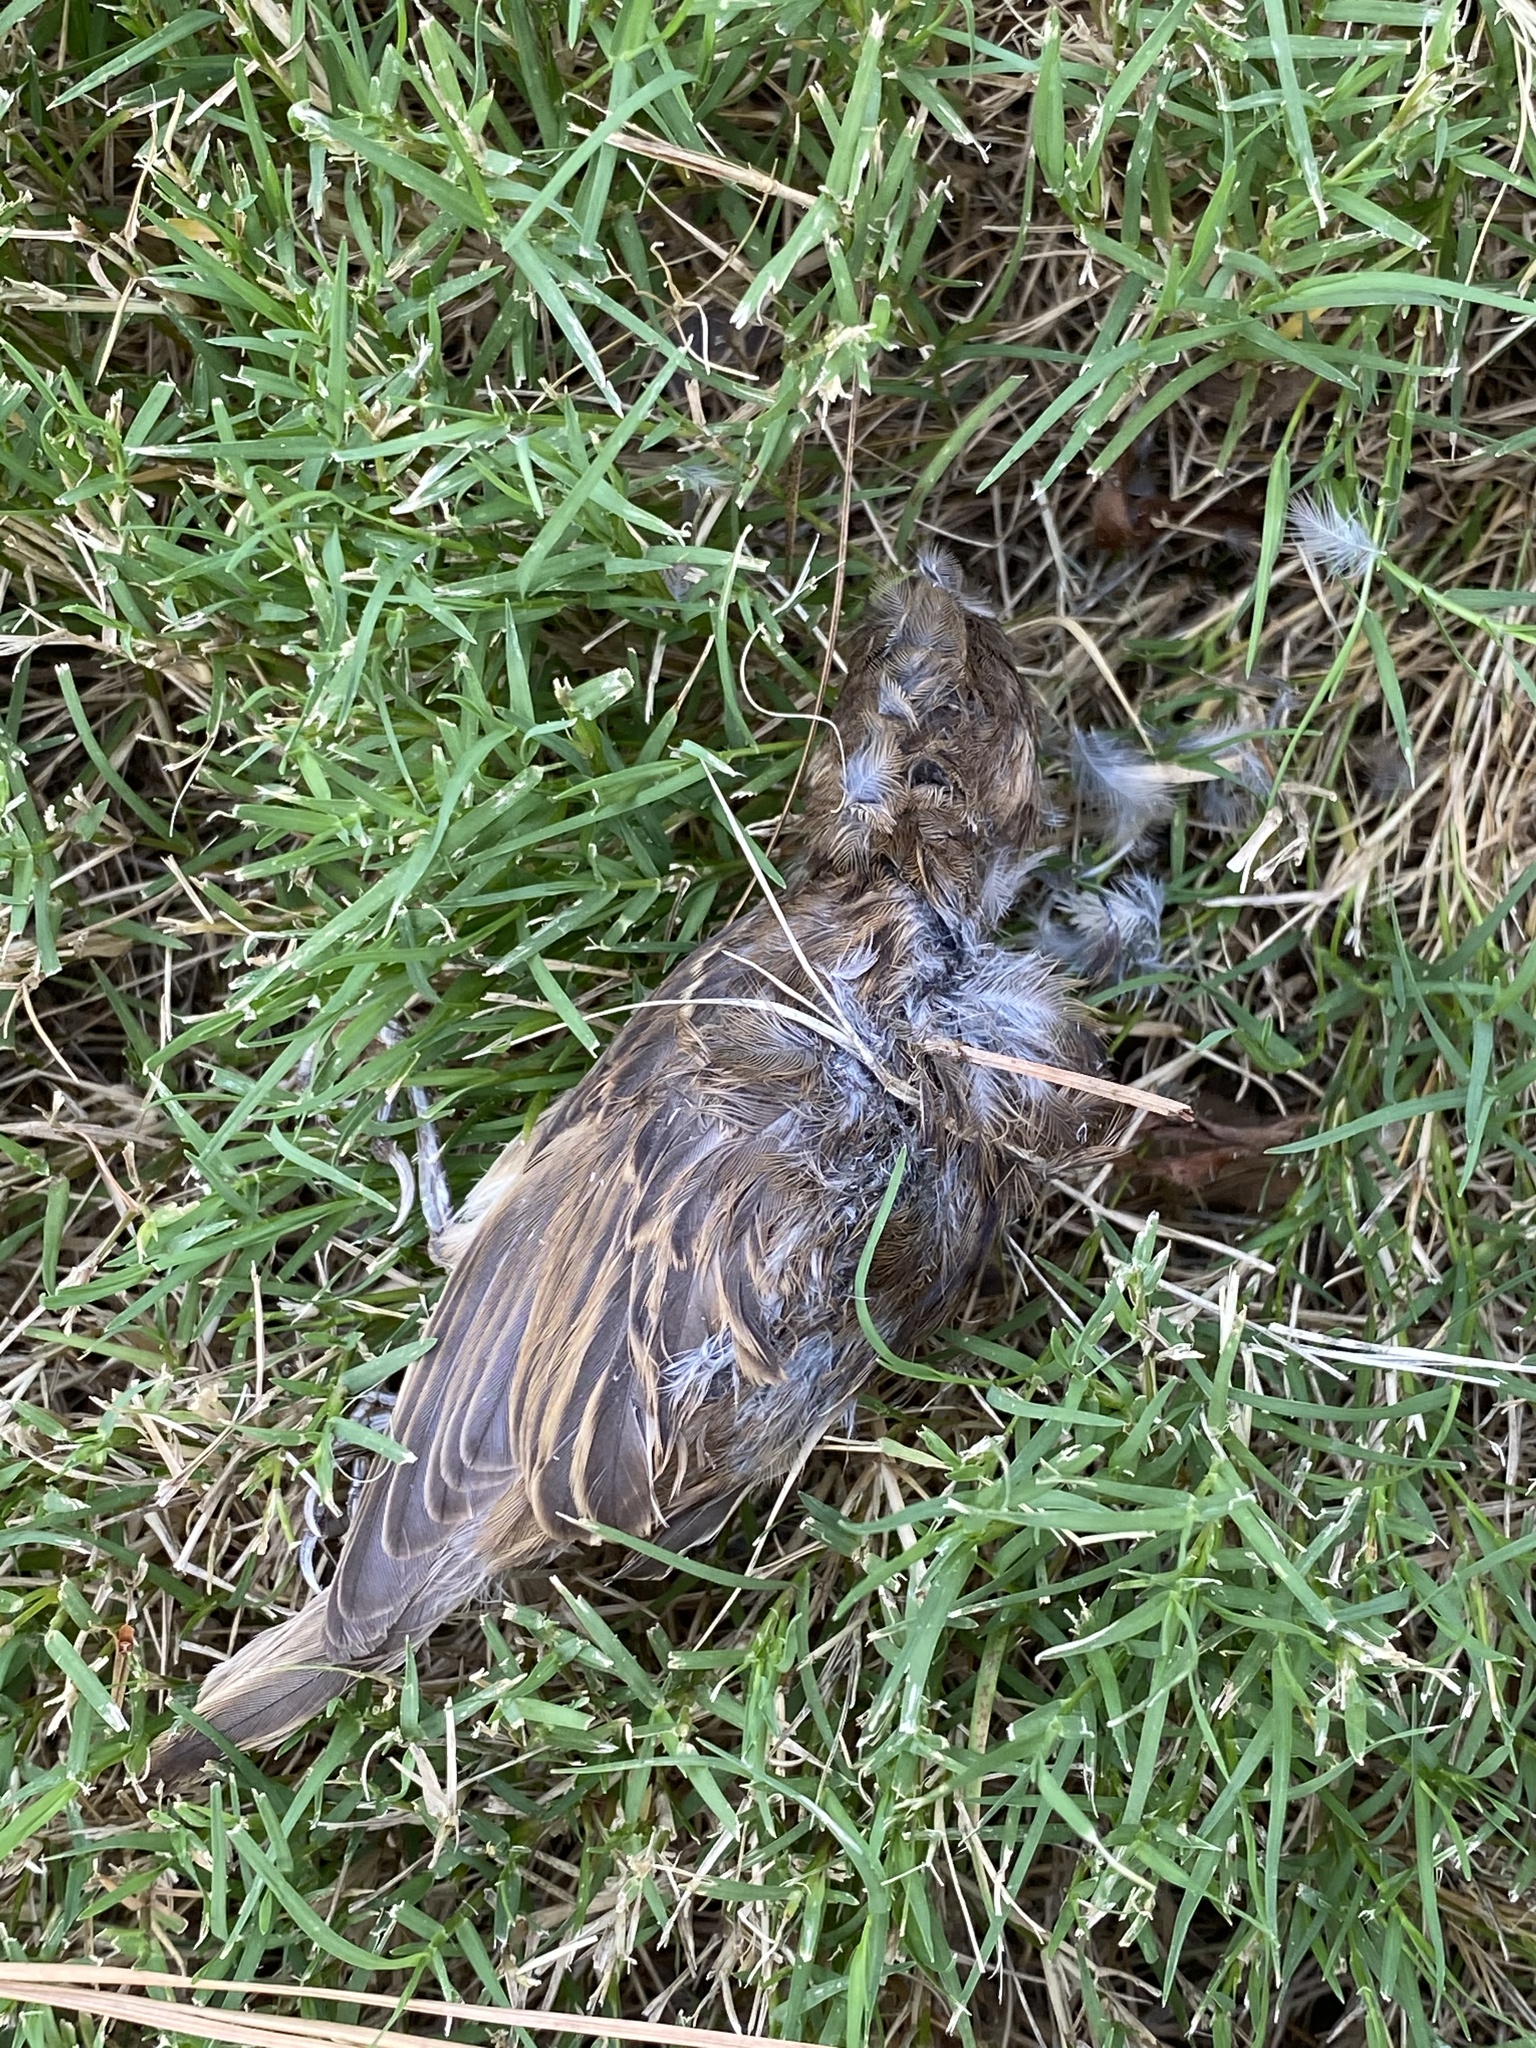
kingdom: Animalia
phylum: Chordata
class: Aves
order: Passeriformes
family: Passeridae
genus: Passer
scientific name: Passer domesticus
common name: House sparrow
